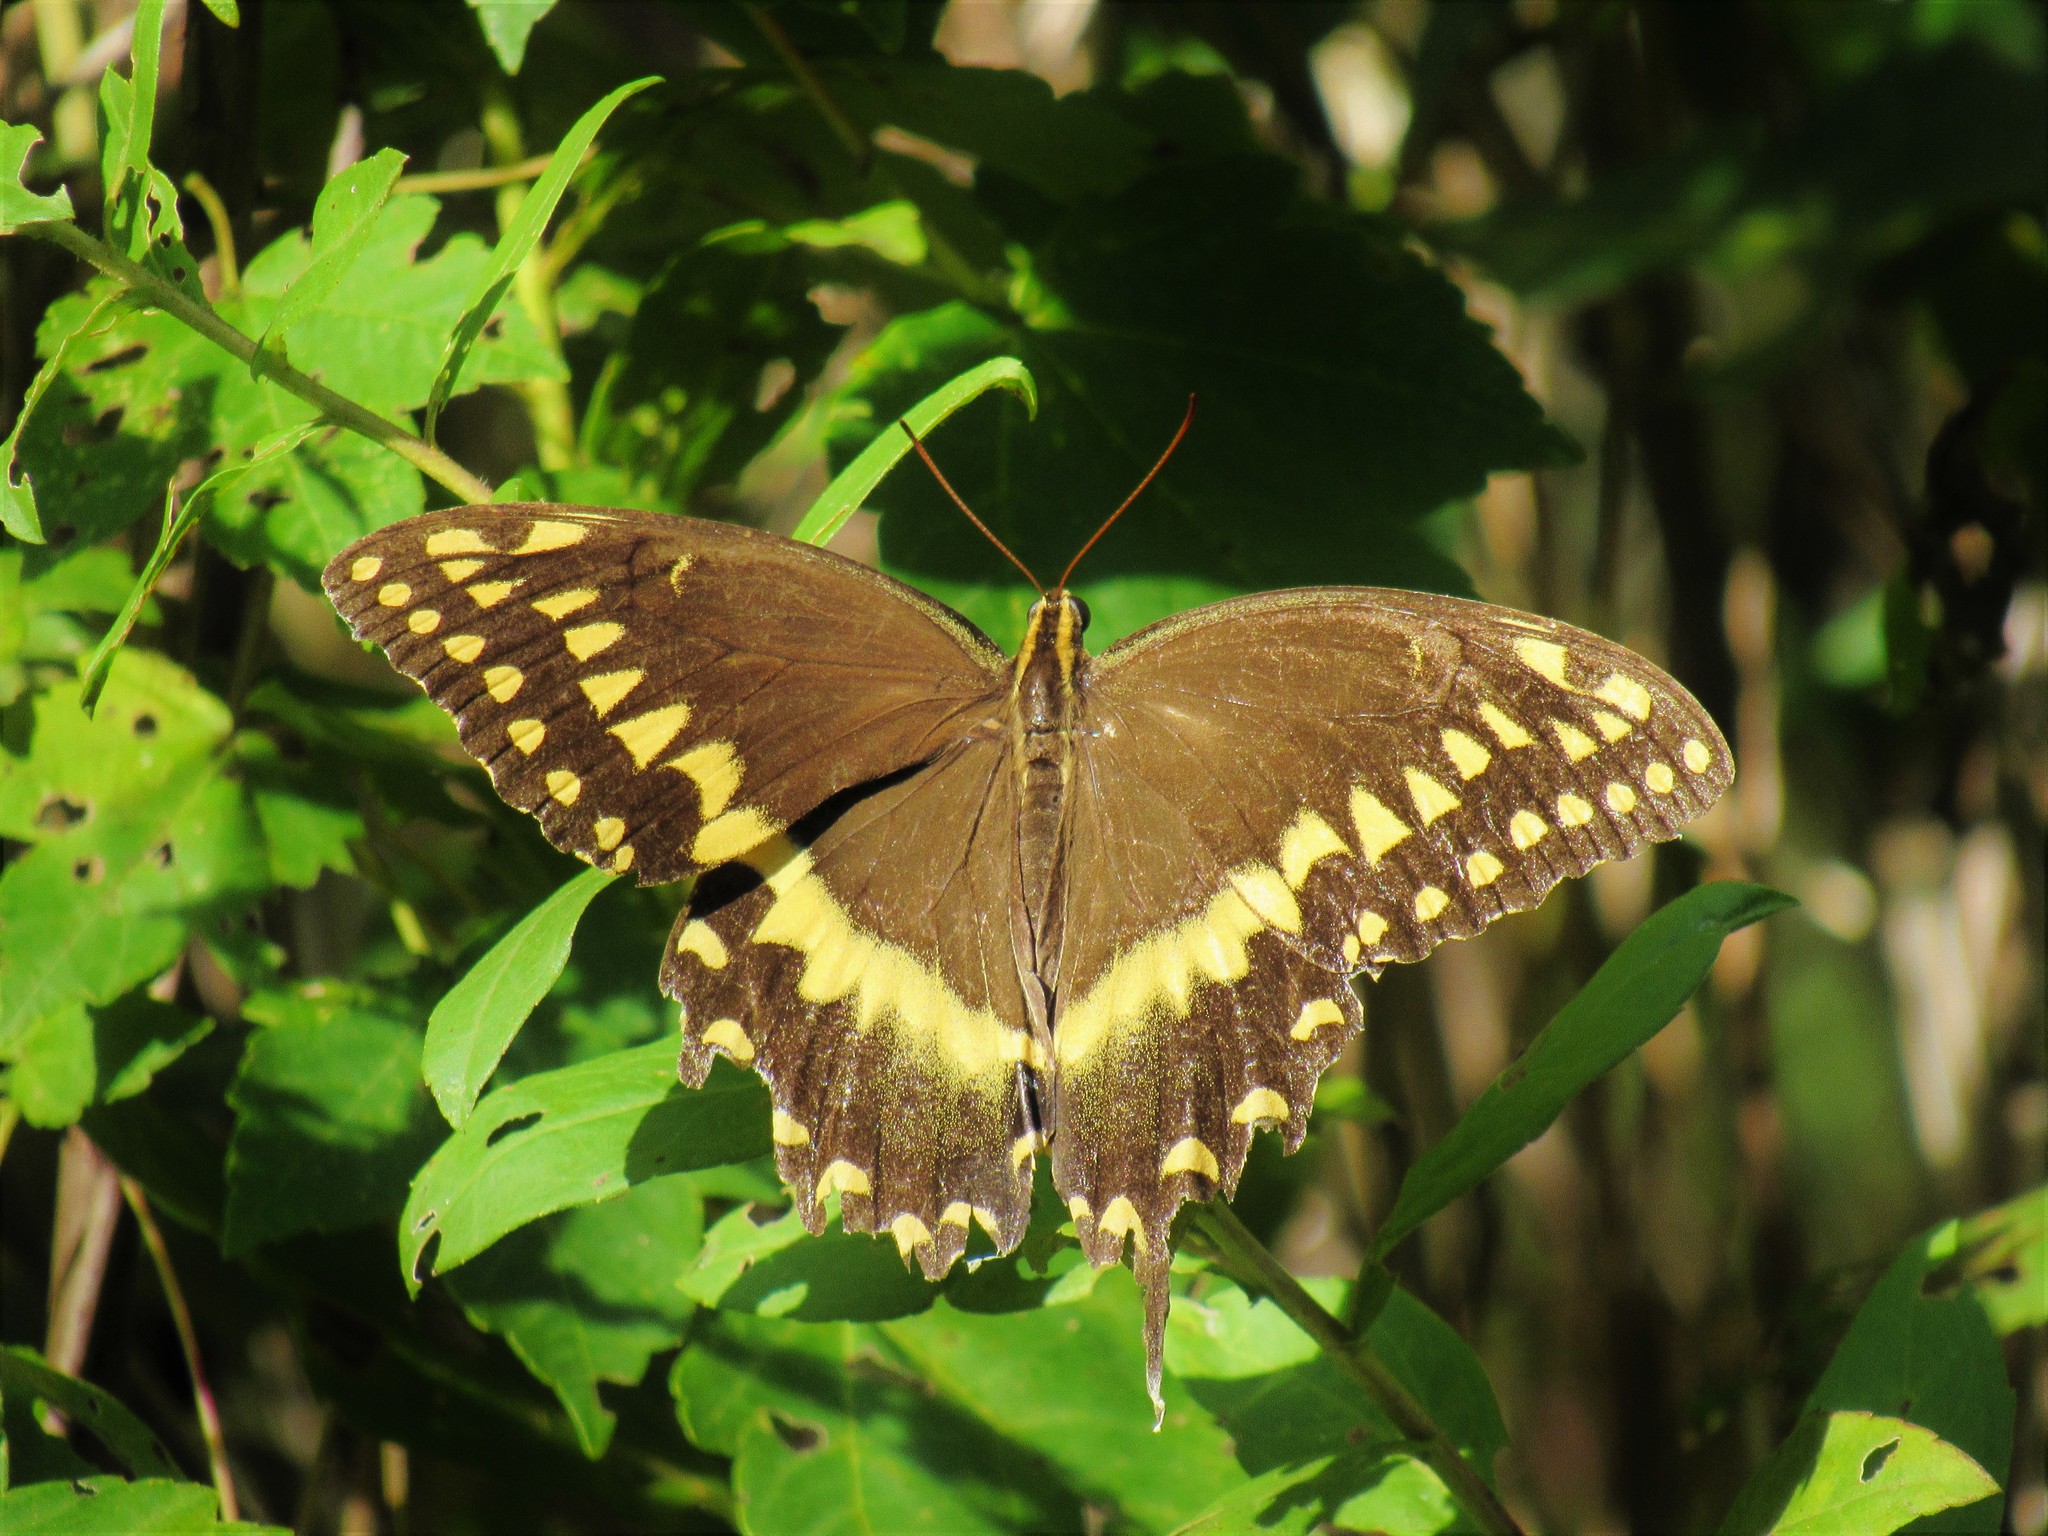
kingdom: Animalia
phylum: Arthropoda
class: Insecta
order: Lepidoptera
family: Papilionidae
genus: Papilio
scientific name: Papilio palamedes
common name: Palamedes swallowtail
